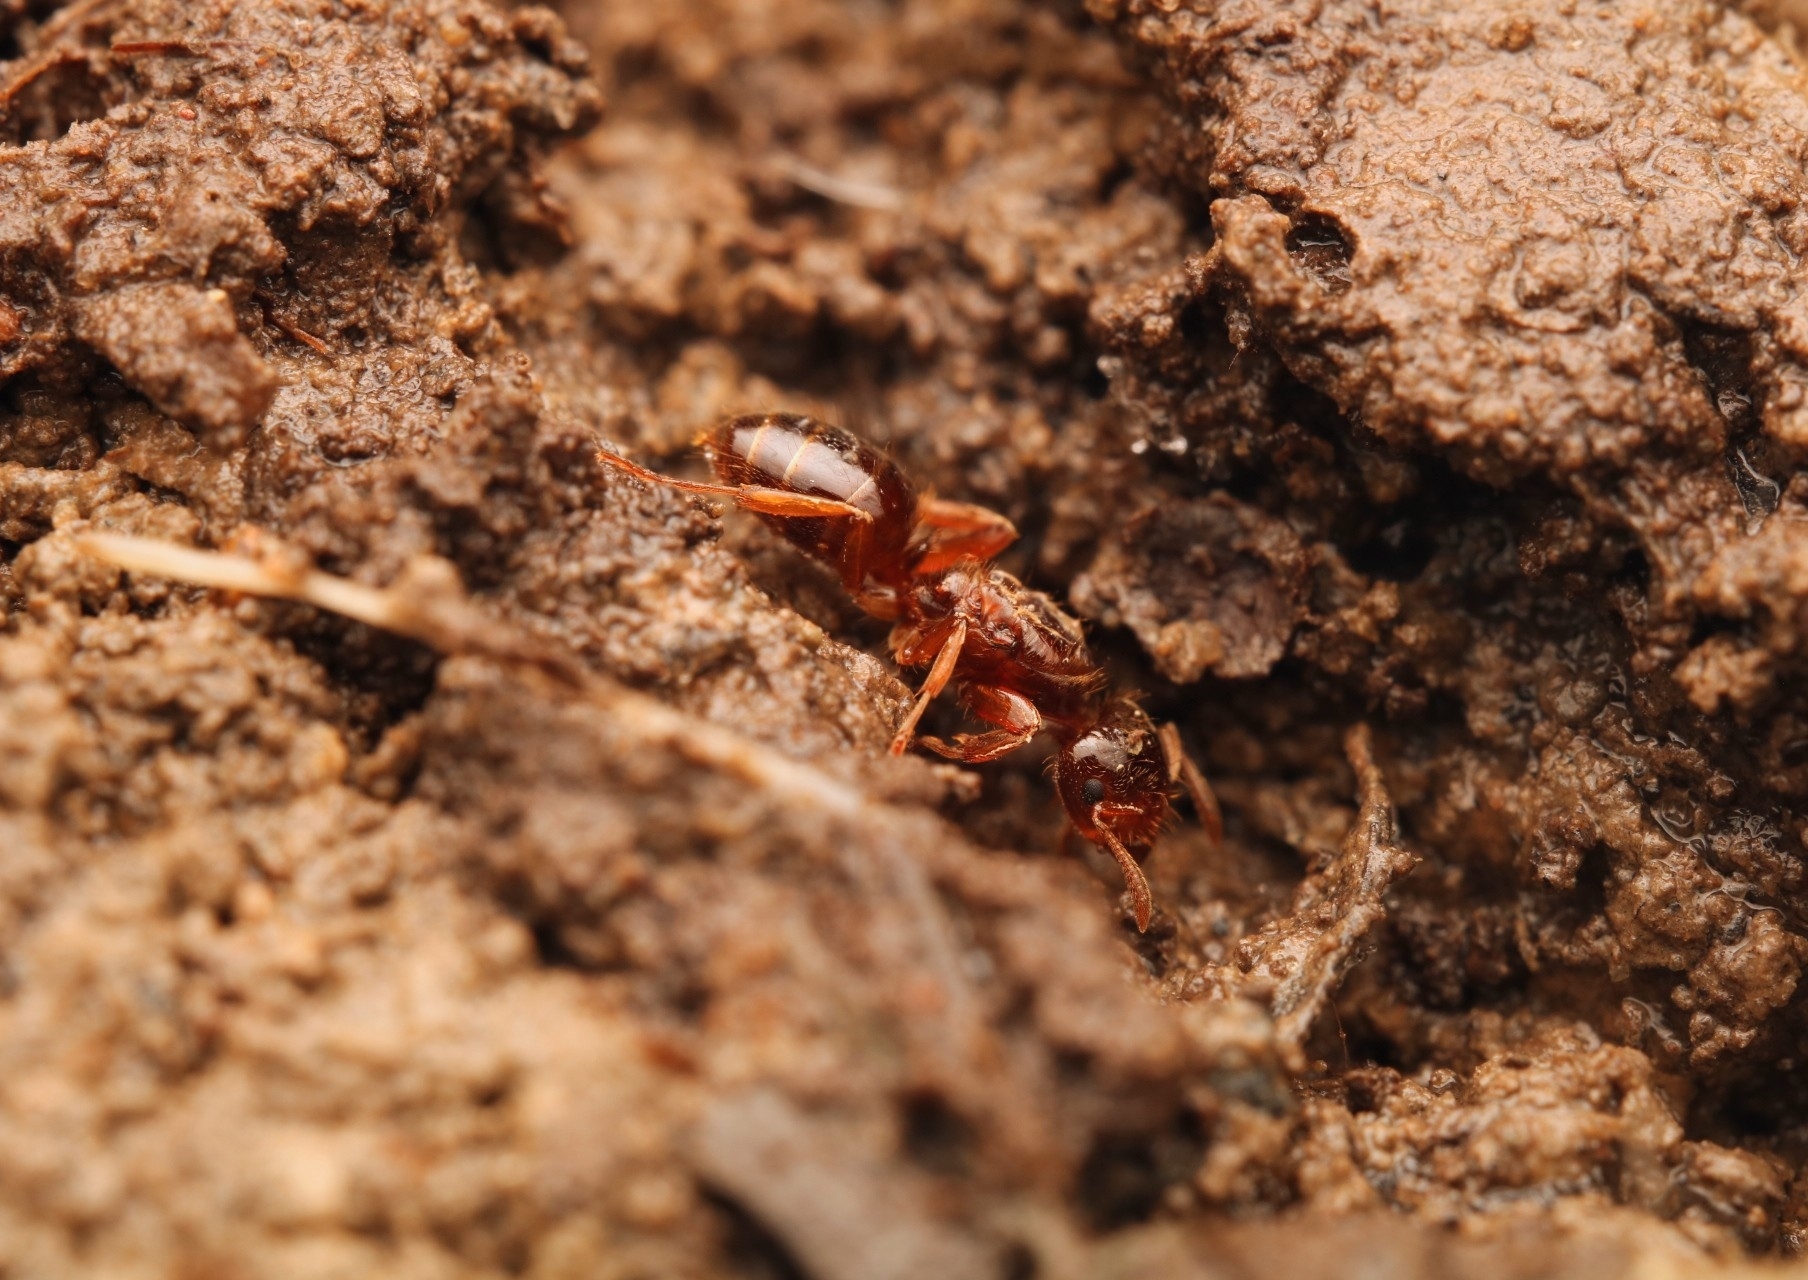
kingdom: Animalia
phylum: Arthropoda
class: Insecta
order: Hymenoptera
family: Formicidae
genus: Lasius
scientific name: Lasius claviger
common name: Common citronella ant
